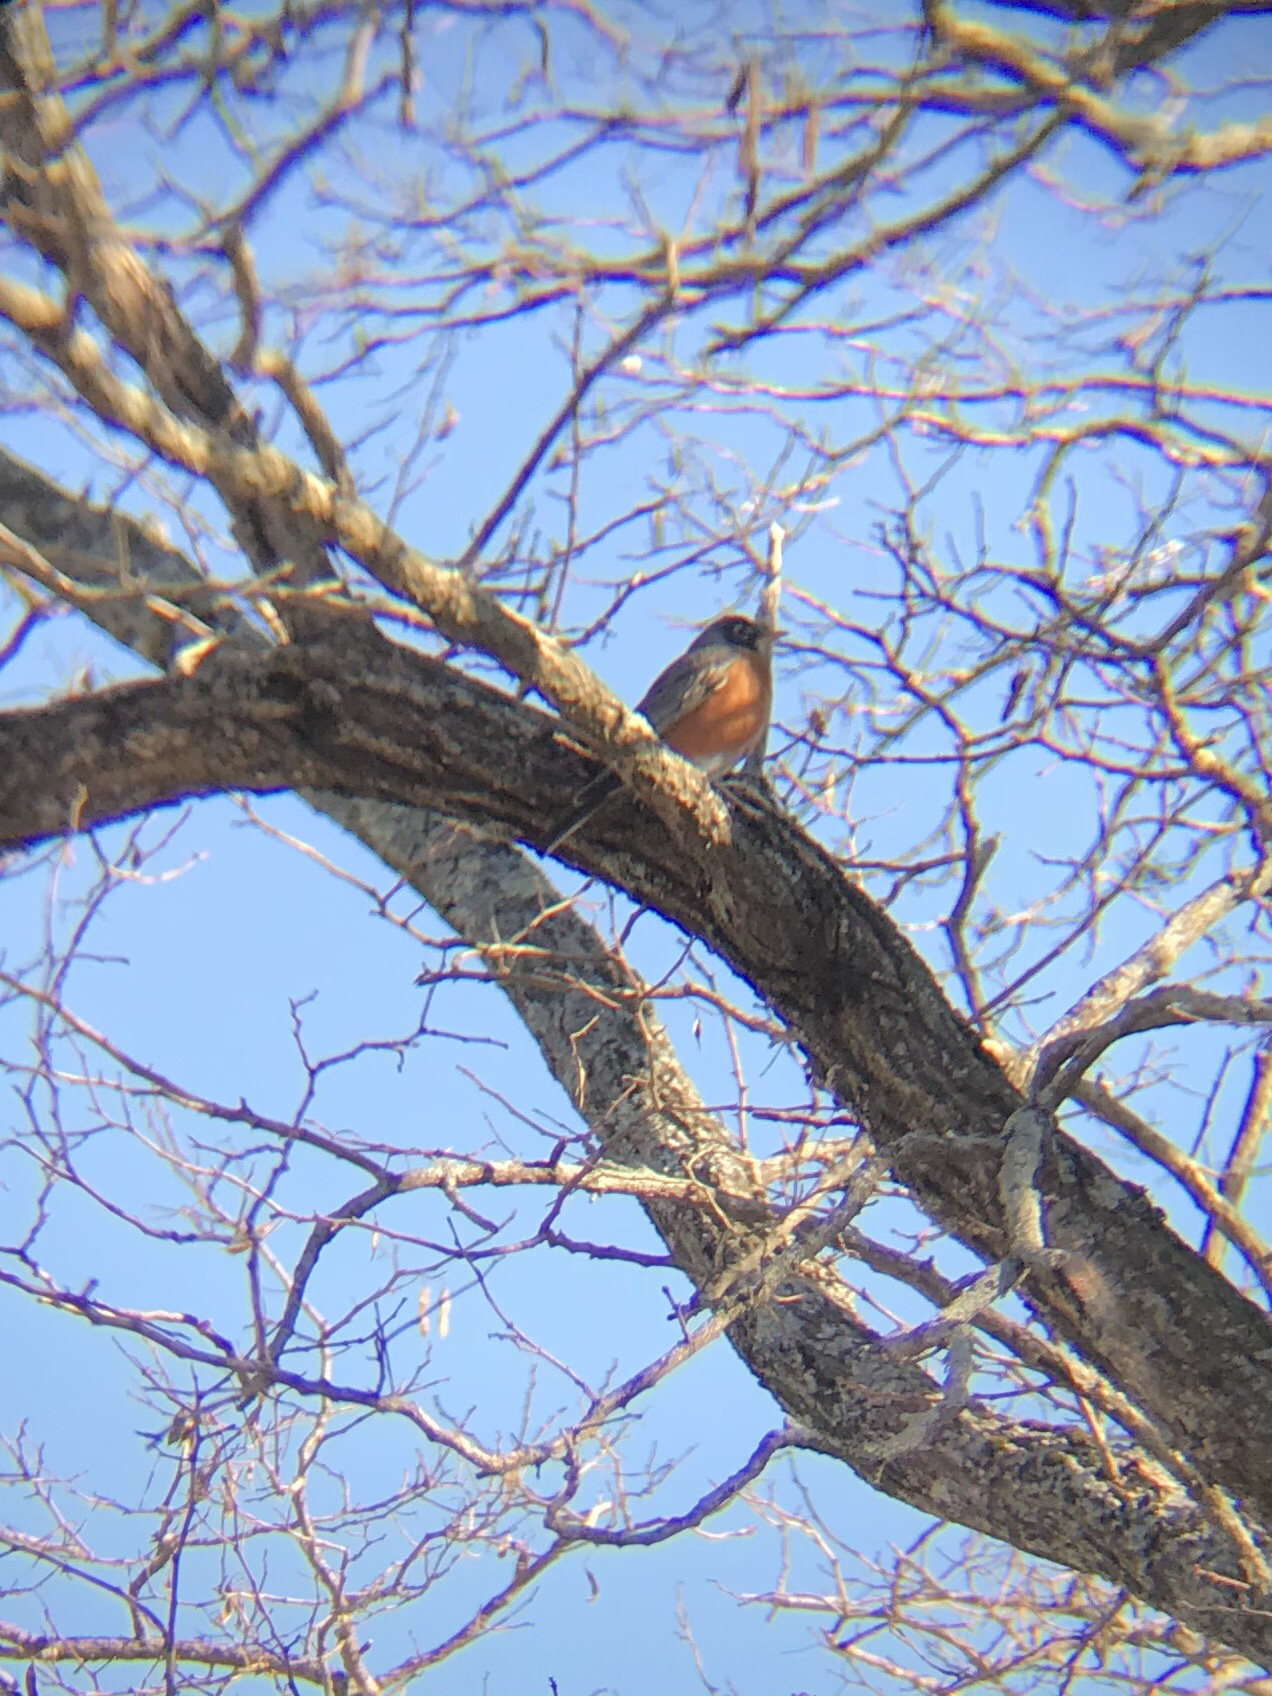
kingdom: Animalia
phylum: Chordata
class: Aves
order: Passeriformes
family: Turdidae
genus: Turdus
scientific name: Turdus migratorius
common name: American robin
